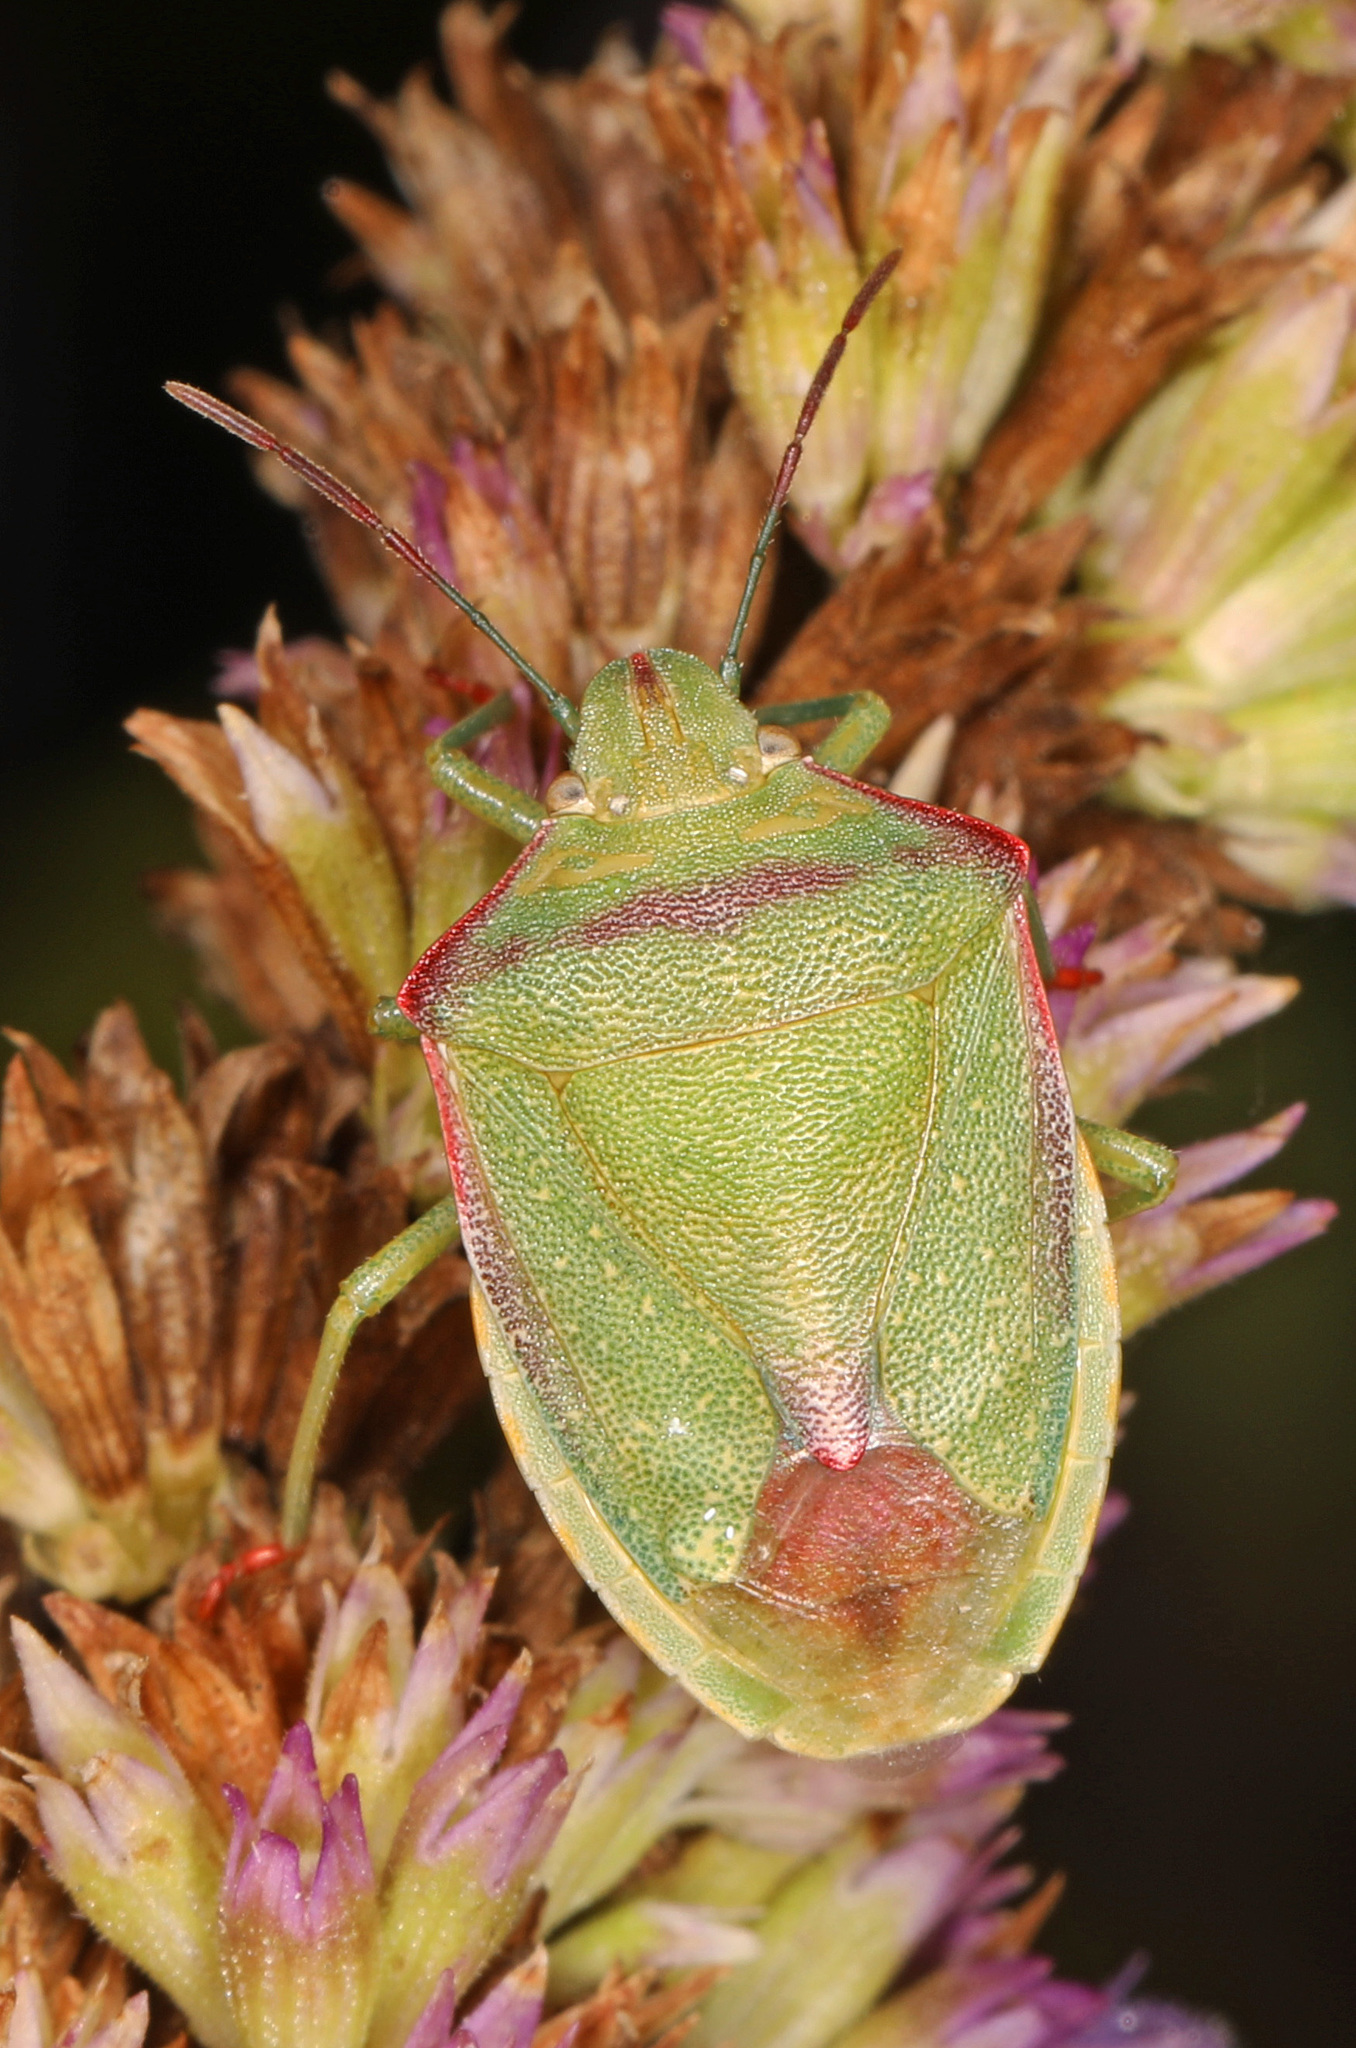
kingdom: Animalia
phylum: Arthropoda
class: Insecta
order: Hemiptera
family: Pentatomidae
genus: Thyanta
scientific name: Thyanta custator
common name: Stink bug
